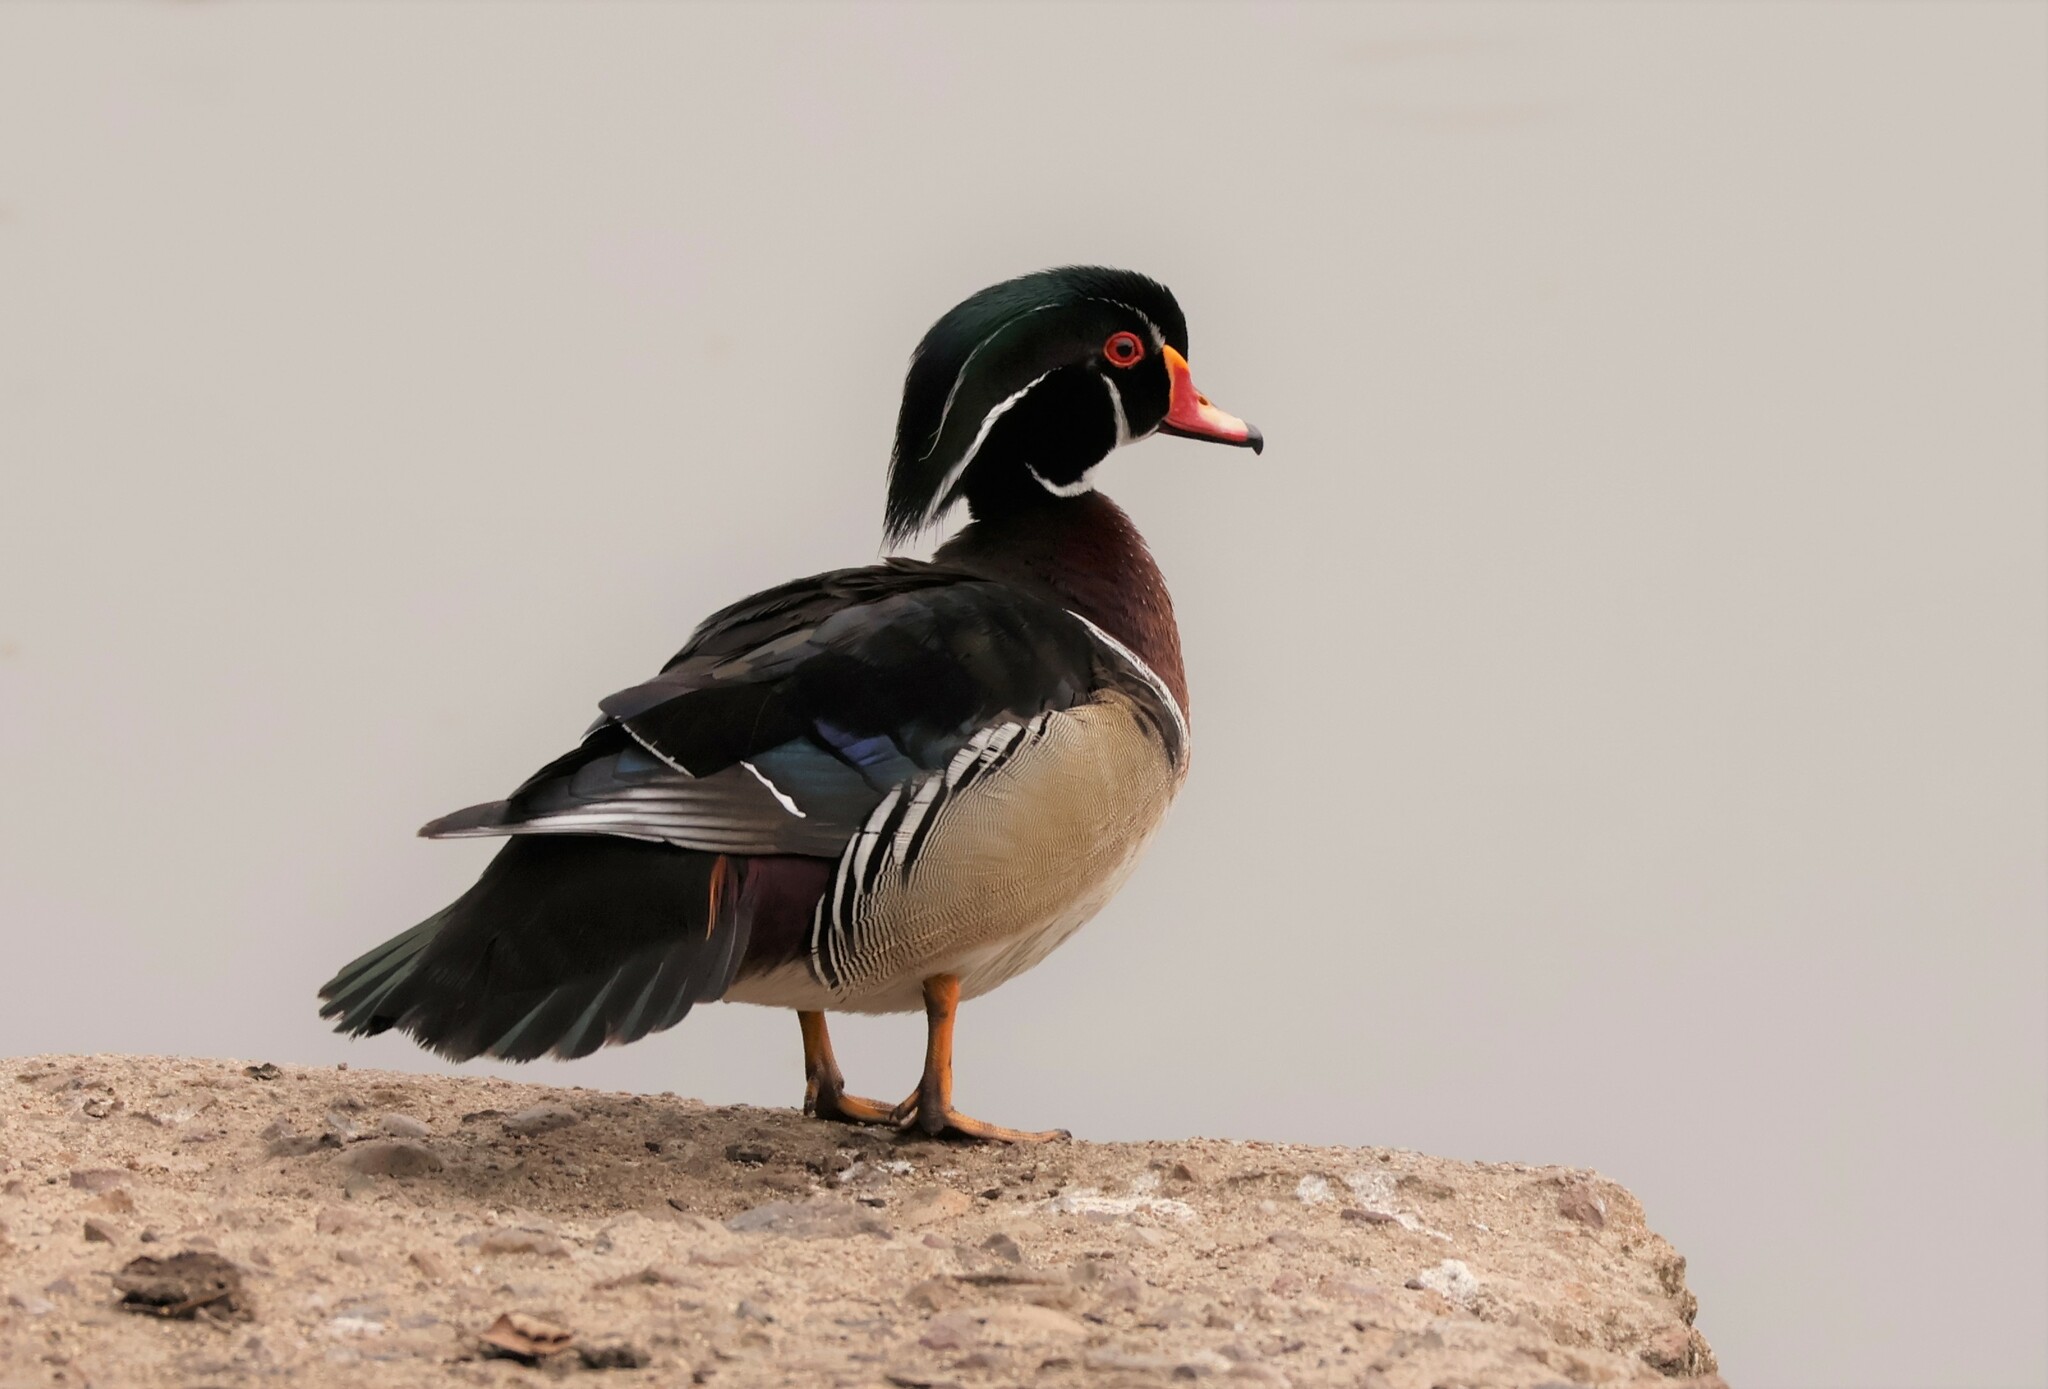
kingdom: Animalia
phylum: Chordata
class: Aves
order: Anseriformes
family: Anatidae
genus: Aix
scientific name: Aix sponsa
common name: Wood duck
